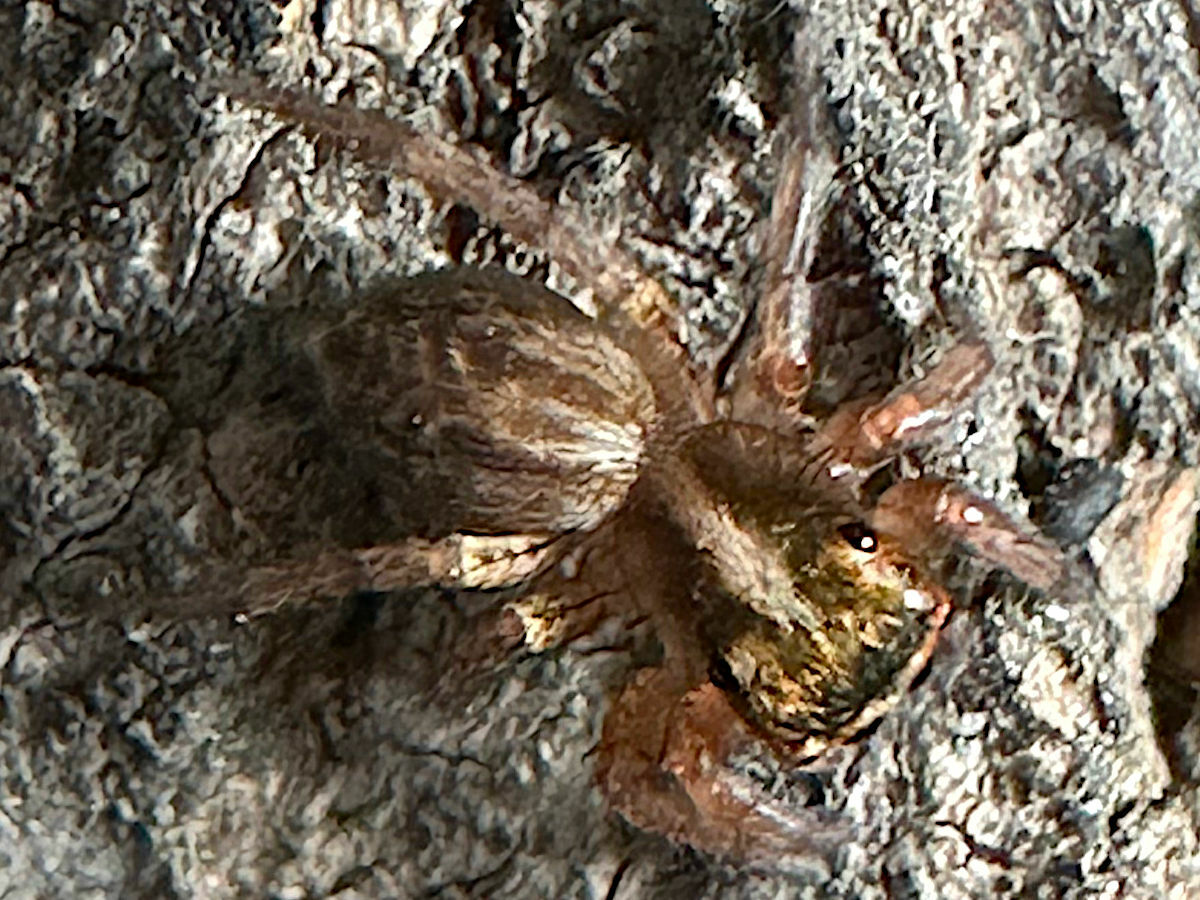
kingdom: Animalia
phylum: Arthropoda
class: Arachnida
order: Araneae
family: Salticidae
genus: Saitis
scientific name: Saitis
